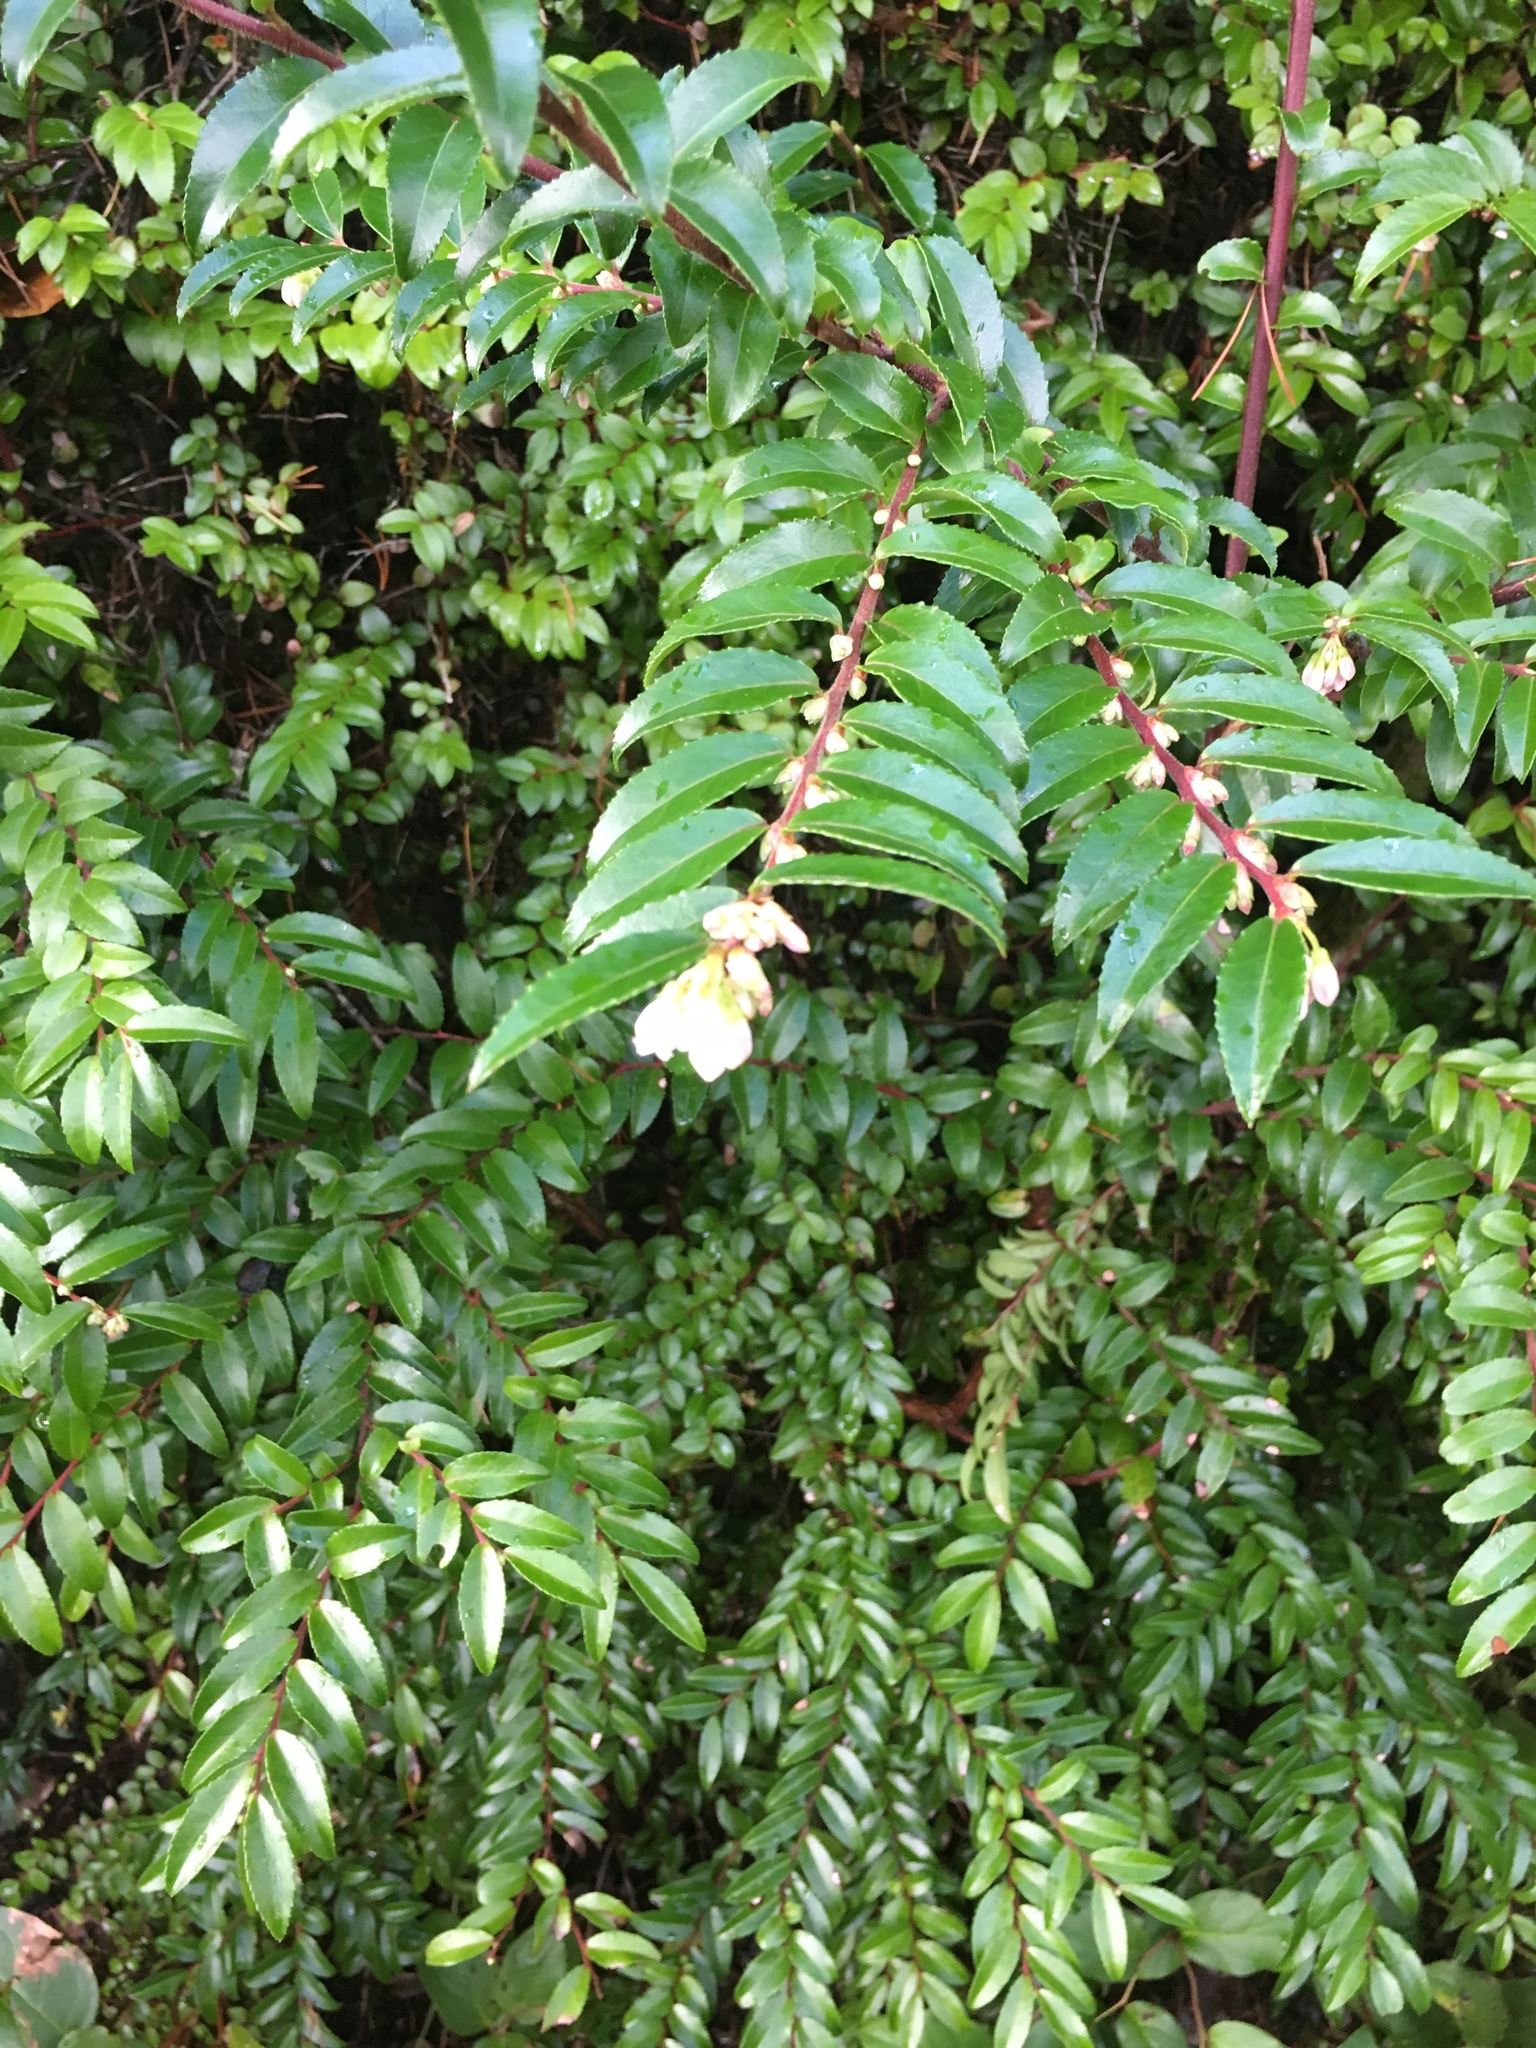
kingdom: Plantae
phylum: Tracheophyta
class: Magnoliopsida
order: Ericales
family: Ericaceae
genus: Vaccinium
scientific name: Vaccinium ovatum
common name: California-huckleberry
